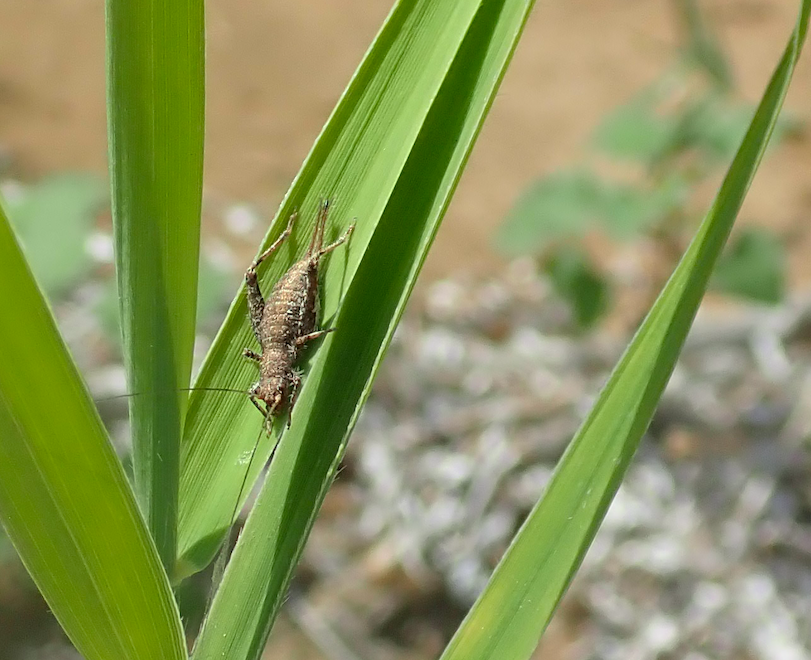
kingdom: Animalia
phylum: Arthropoda
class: Insecta
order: Orthoptera
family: Mogoplistidae
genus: Arachnocephalus
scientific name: Arachnocephalus vestitus
